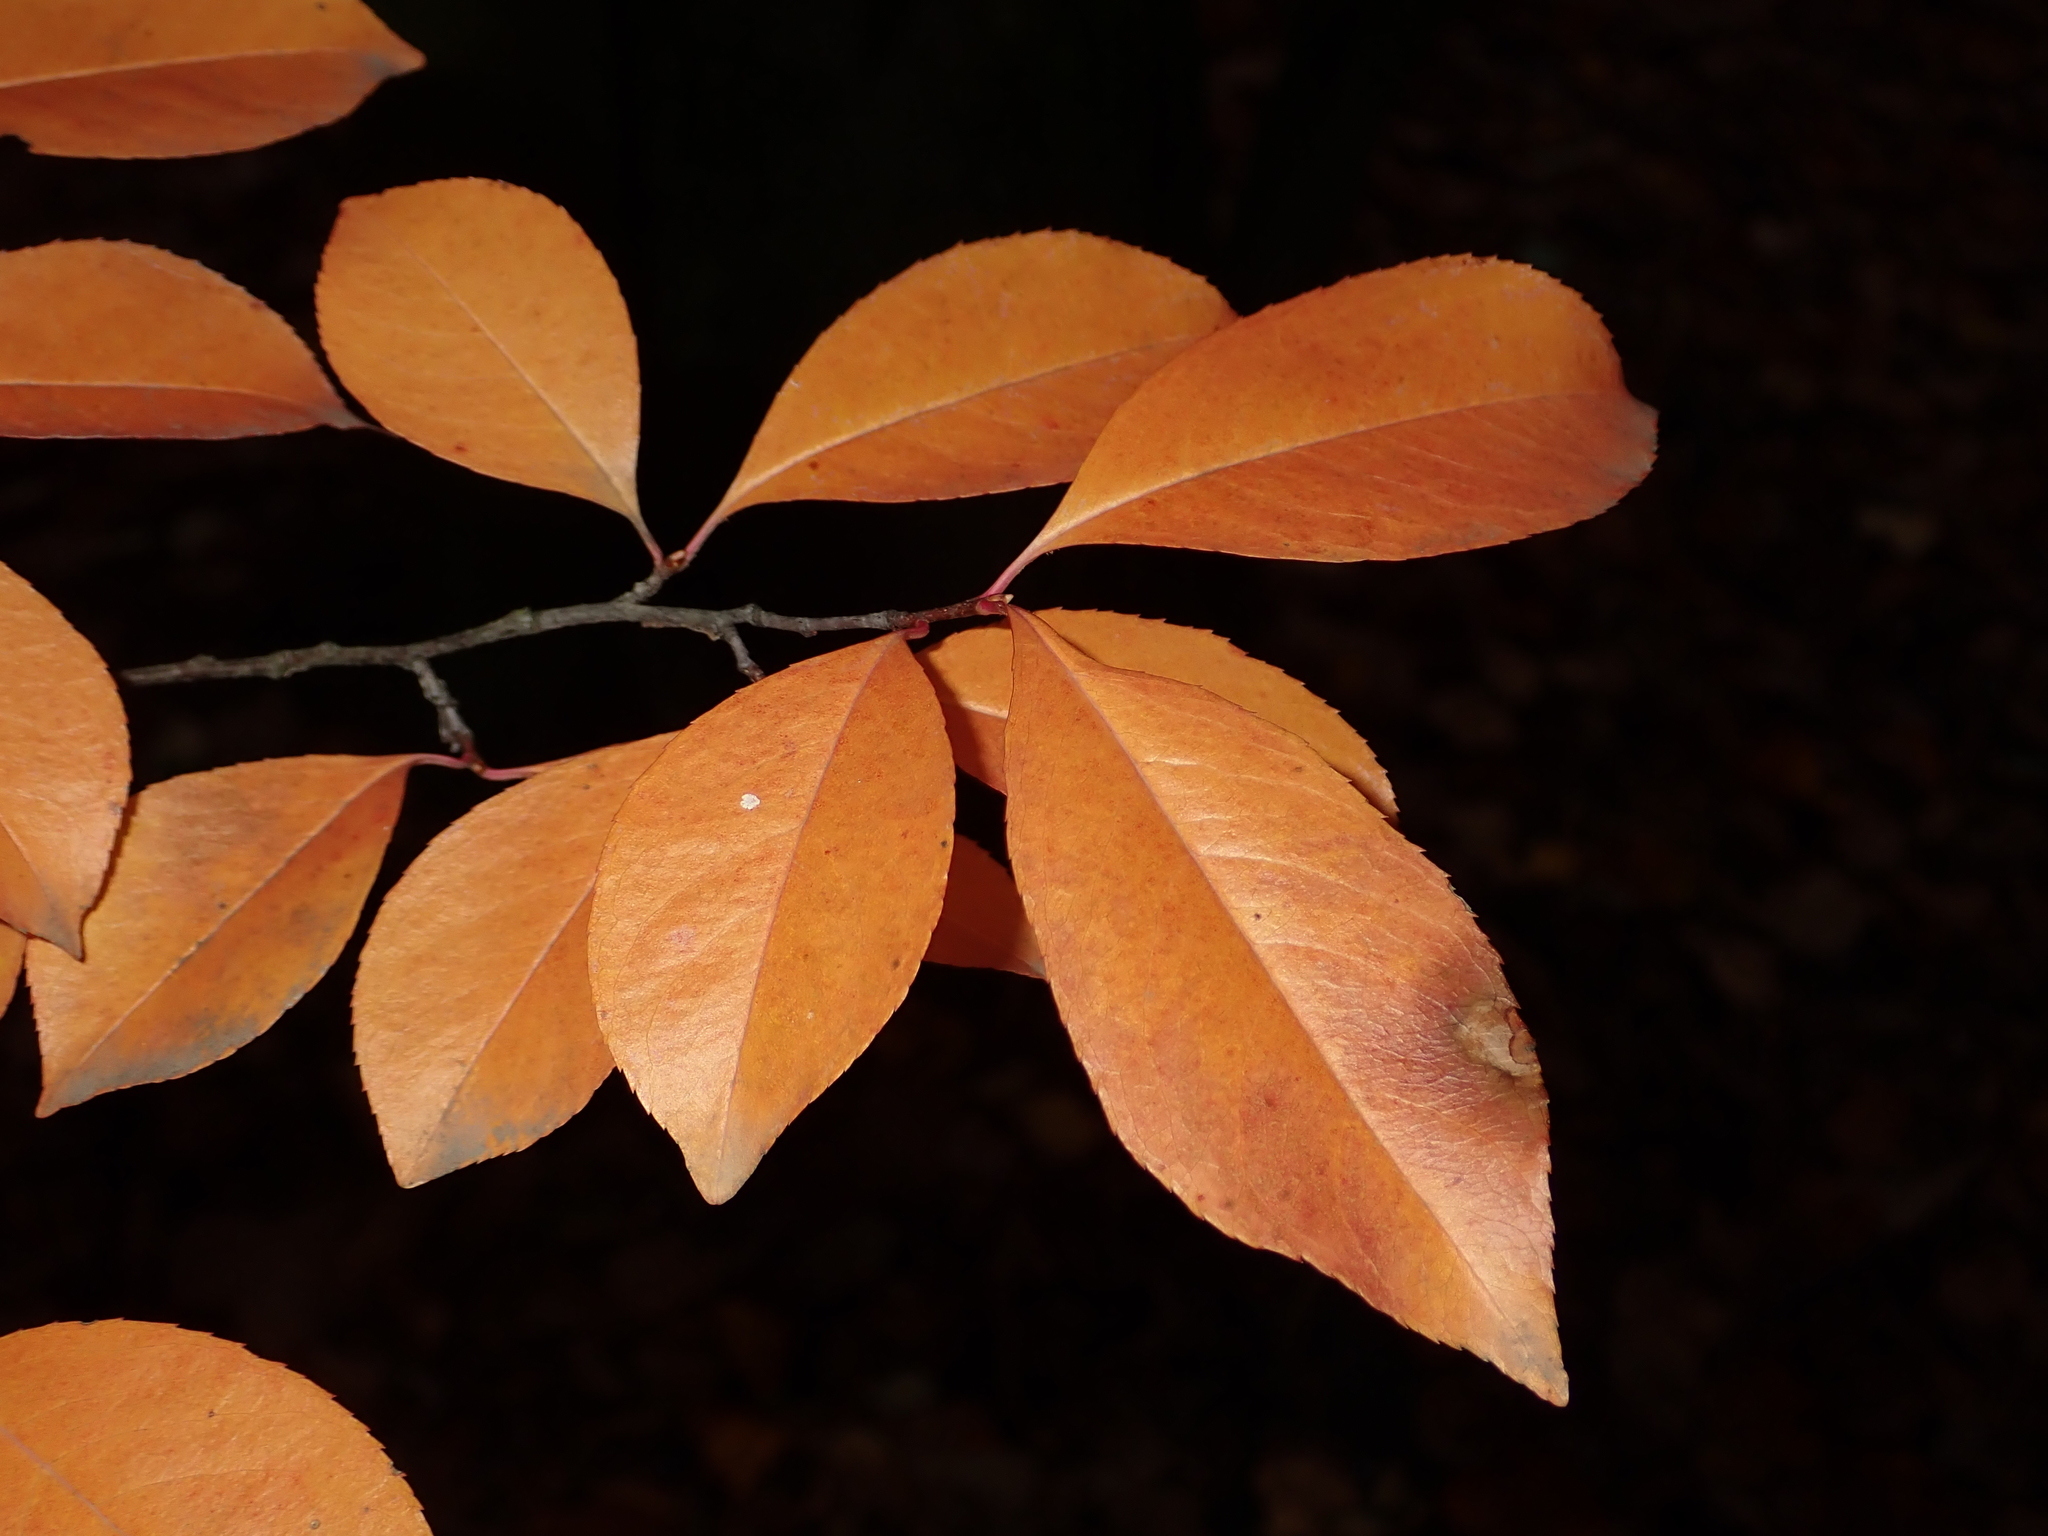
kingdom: Plantae
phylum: Tracheophyta
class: Magnoliopsida
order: Rosales
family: Rosaceae
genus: Prunus
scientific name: Prunus serotina
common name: Black cherry
